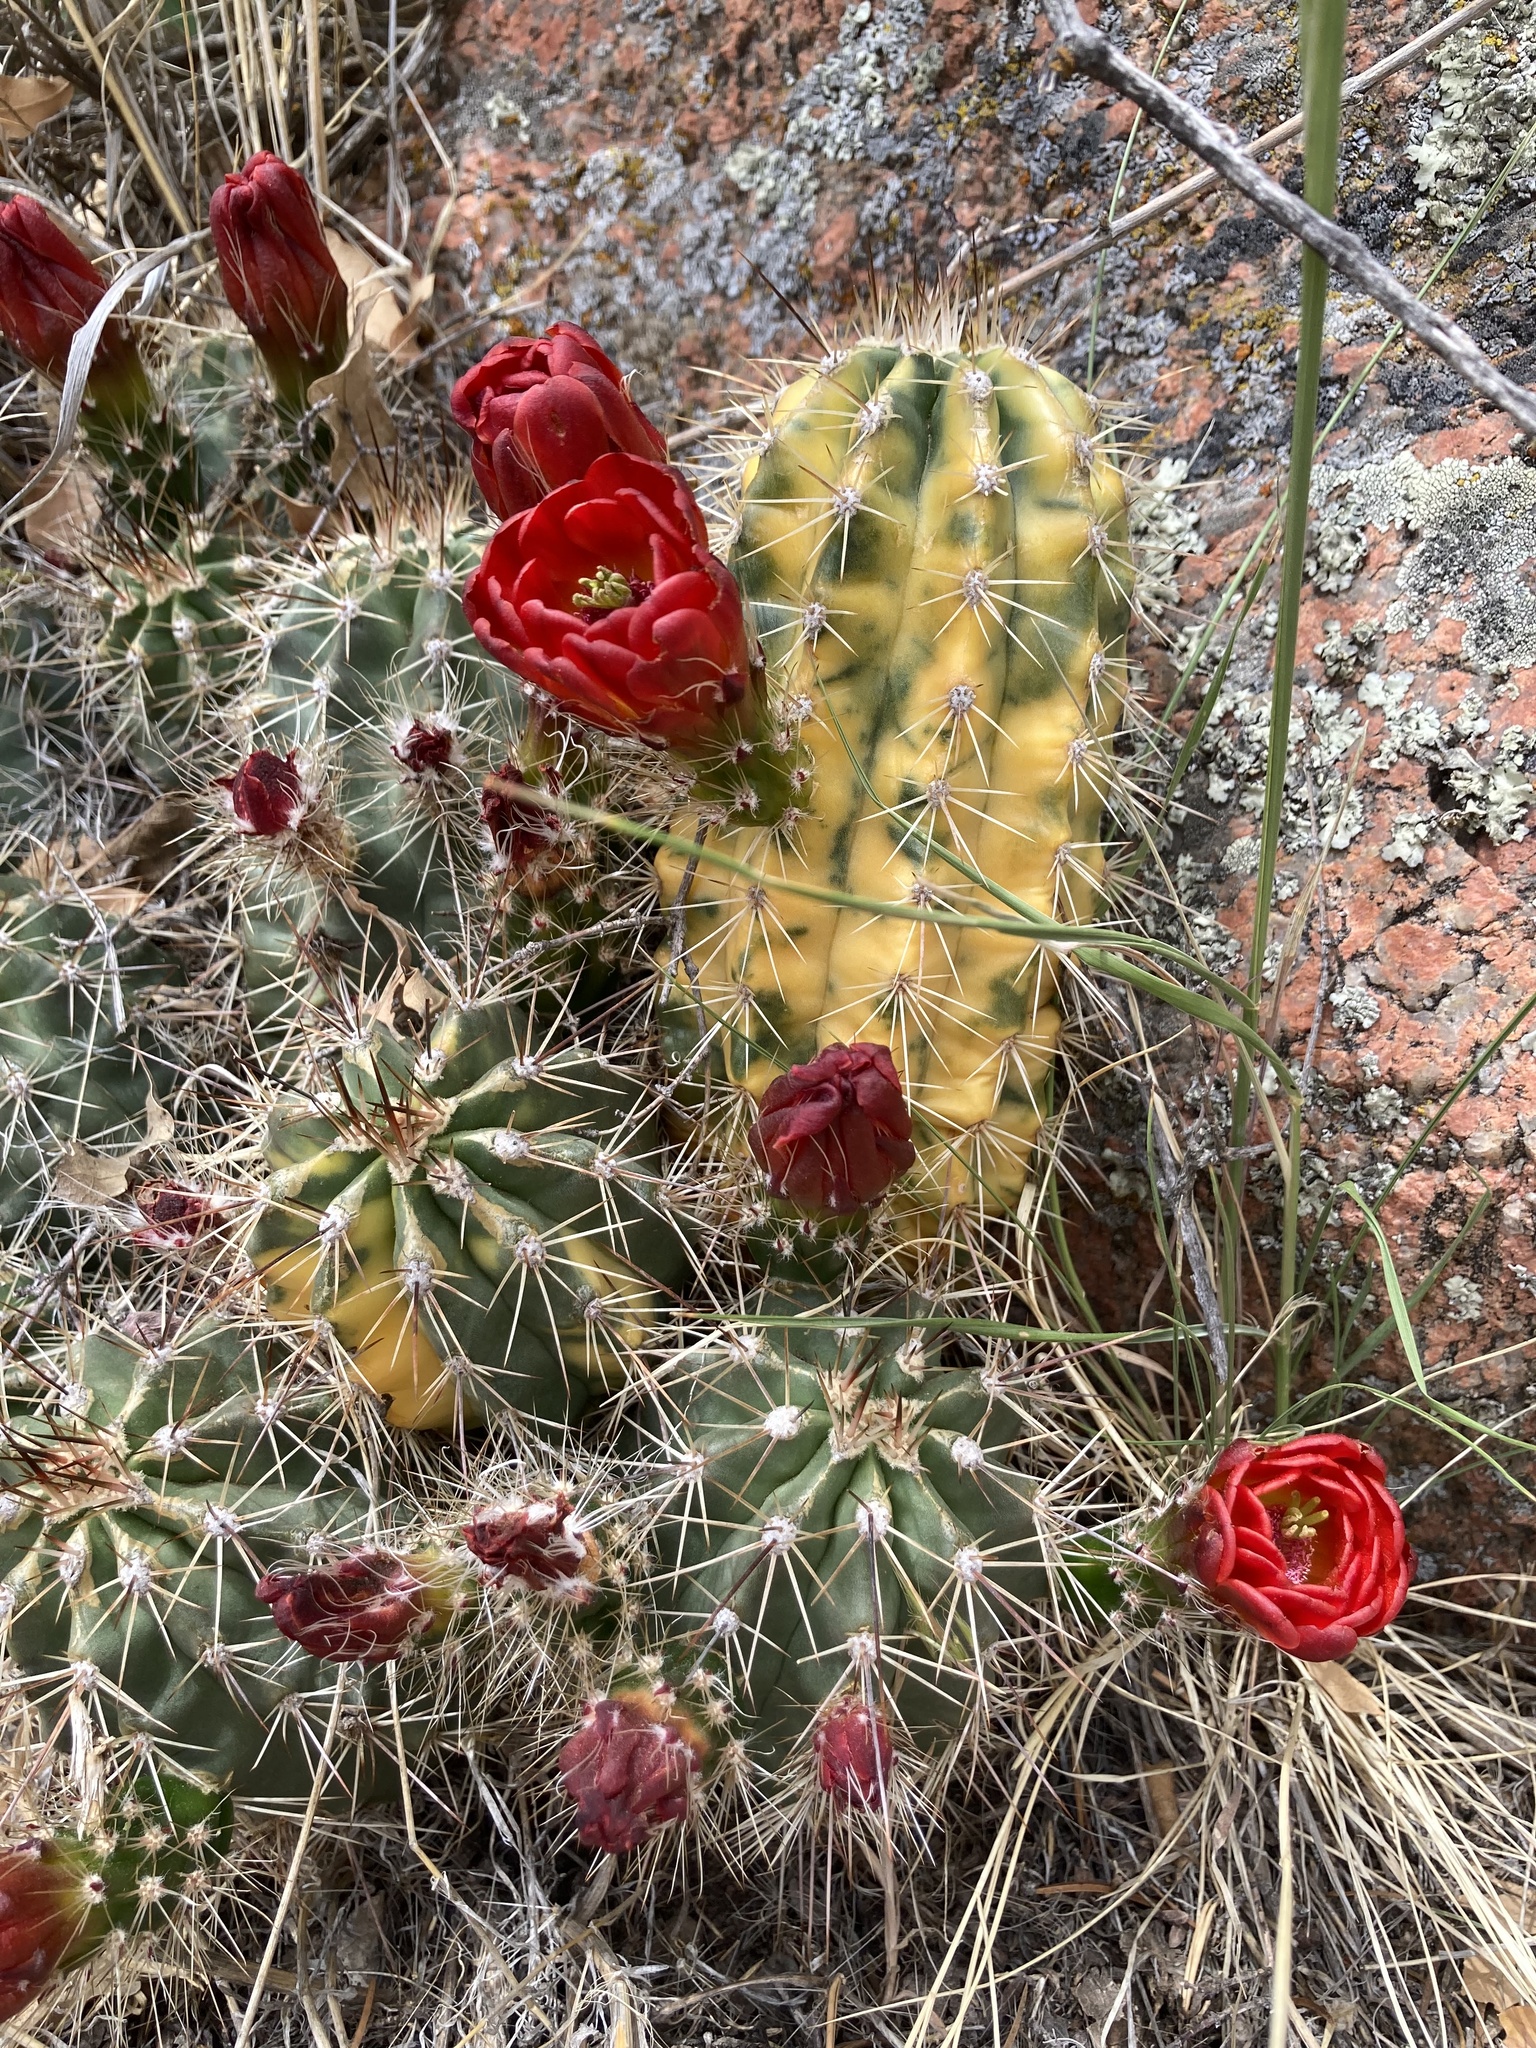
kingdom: Plantae
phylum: Tracheophyta
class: Magnoliopsida
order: Caryophyllales
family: Cactaceae
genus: Echinocereus
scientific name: Echinocereus coccineus
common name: Scarlet hedgehog cactus
